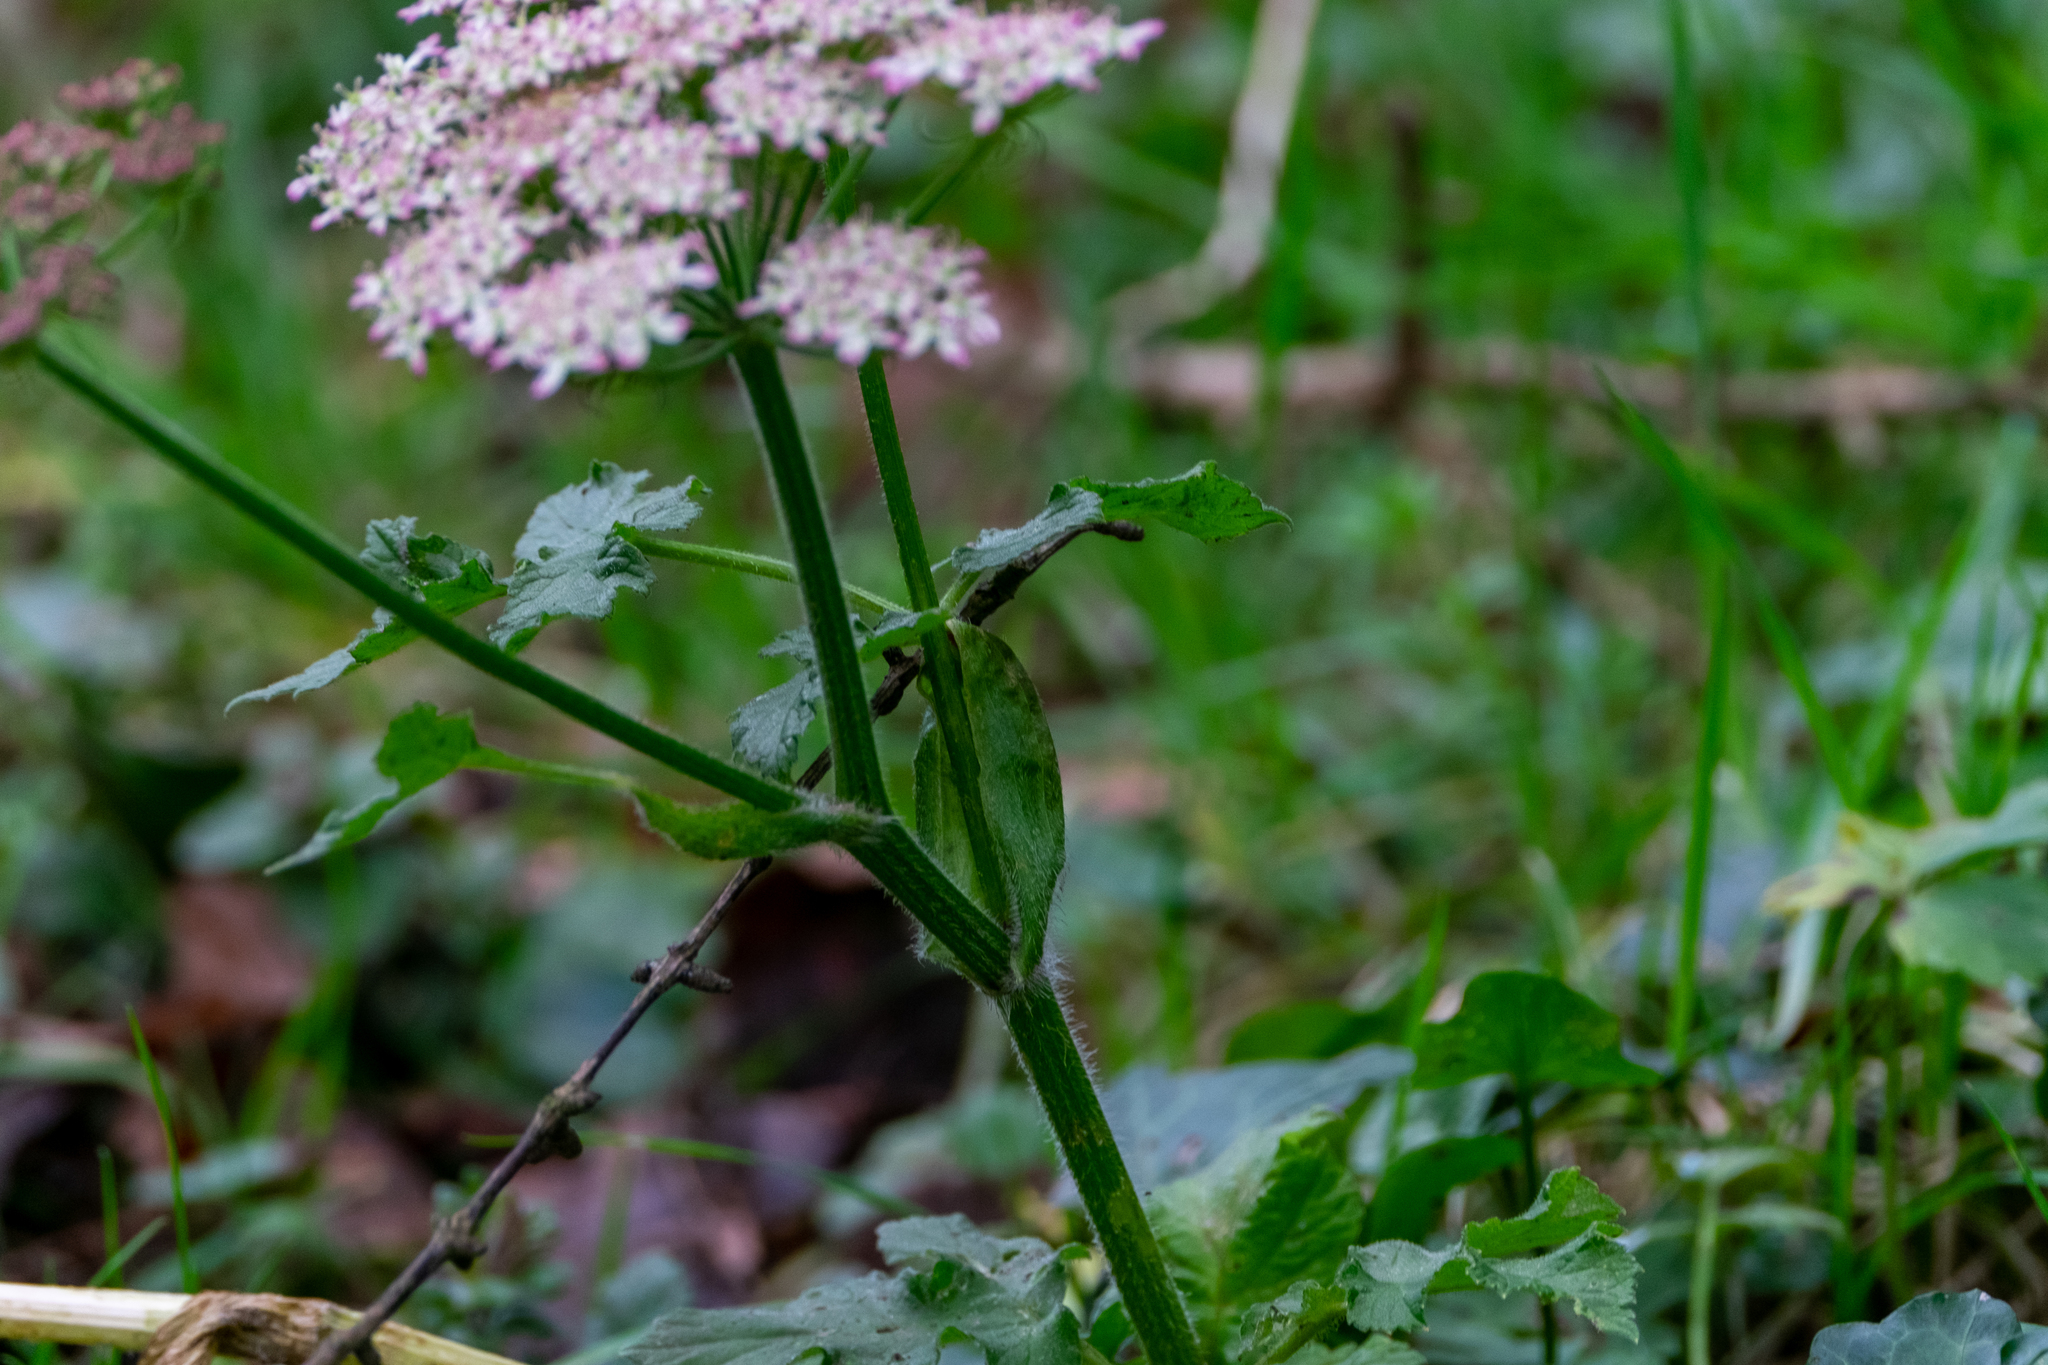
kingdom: Plantae
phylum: Tracheophyta
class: Magnoliopsida
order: Apiales
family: Apiaceae
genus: Heracleum
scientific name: Heracleum sphondylium
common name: Hogweed
